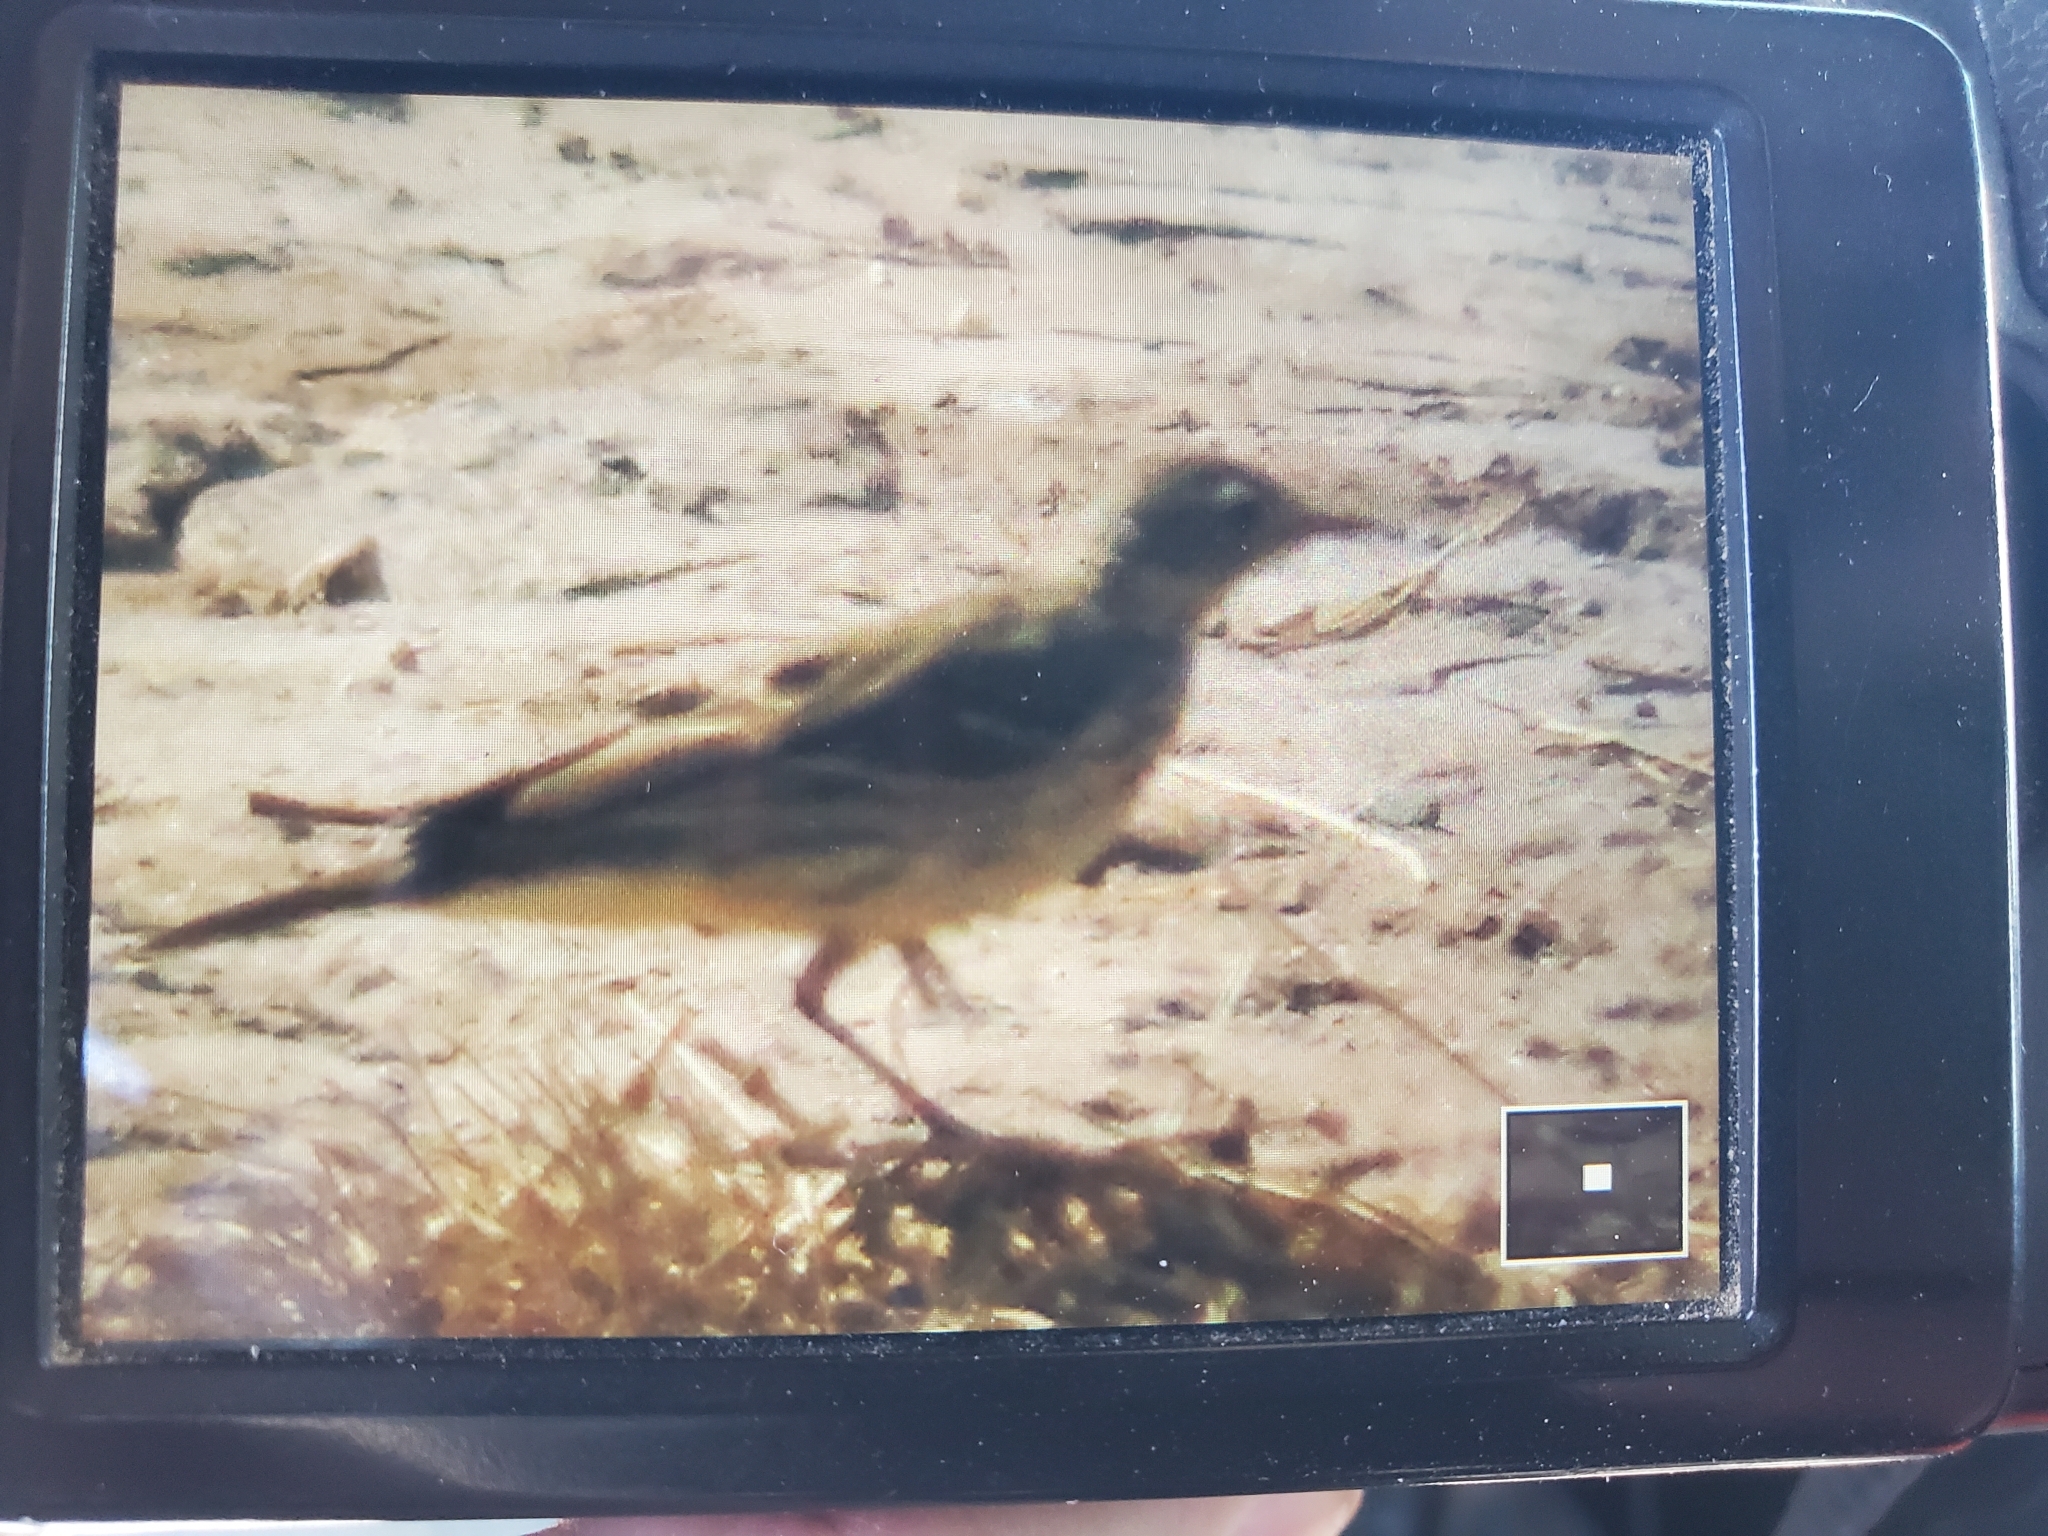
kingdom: Animalia
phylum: Chordata
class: Aves
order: Passeriformes
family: Motacillidae
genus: Anthus
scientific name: Anthus rubescens
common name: Buff-bellied pipit
